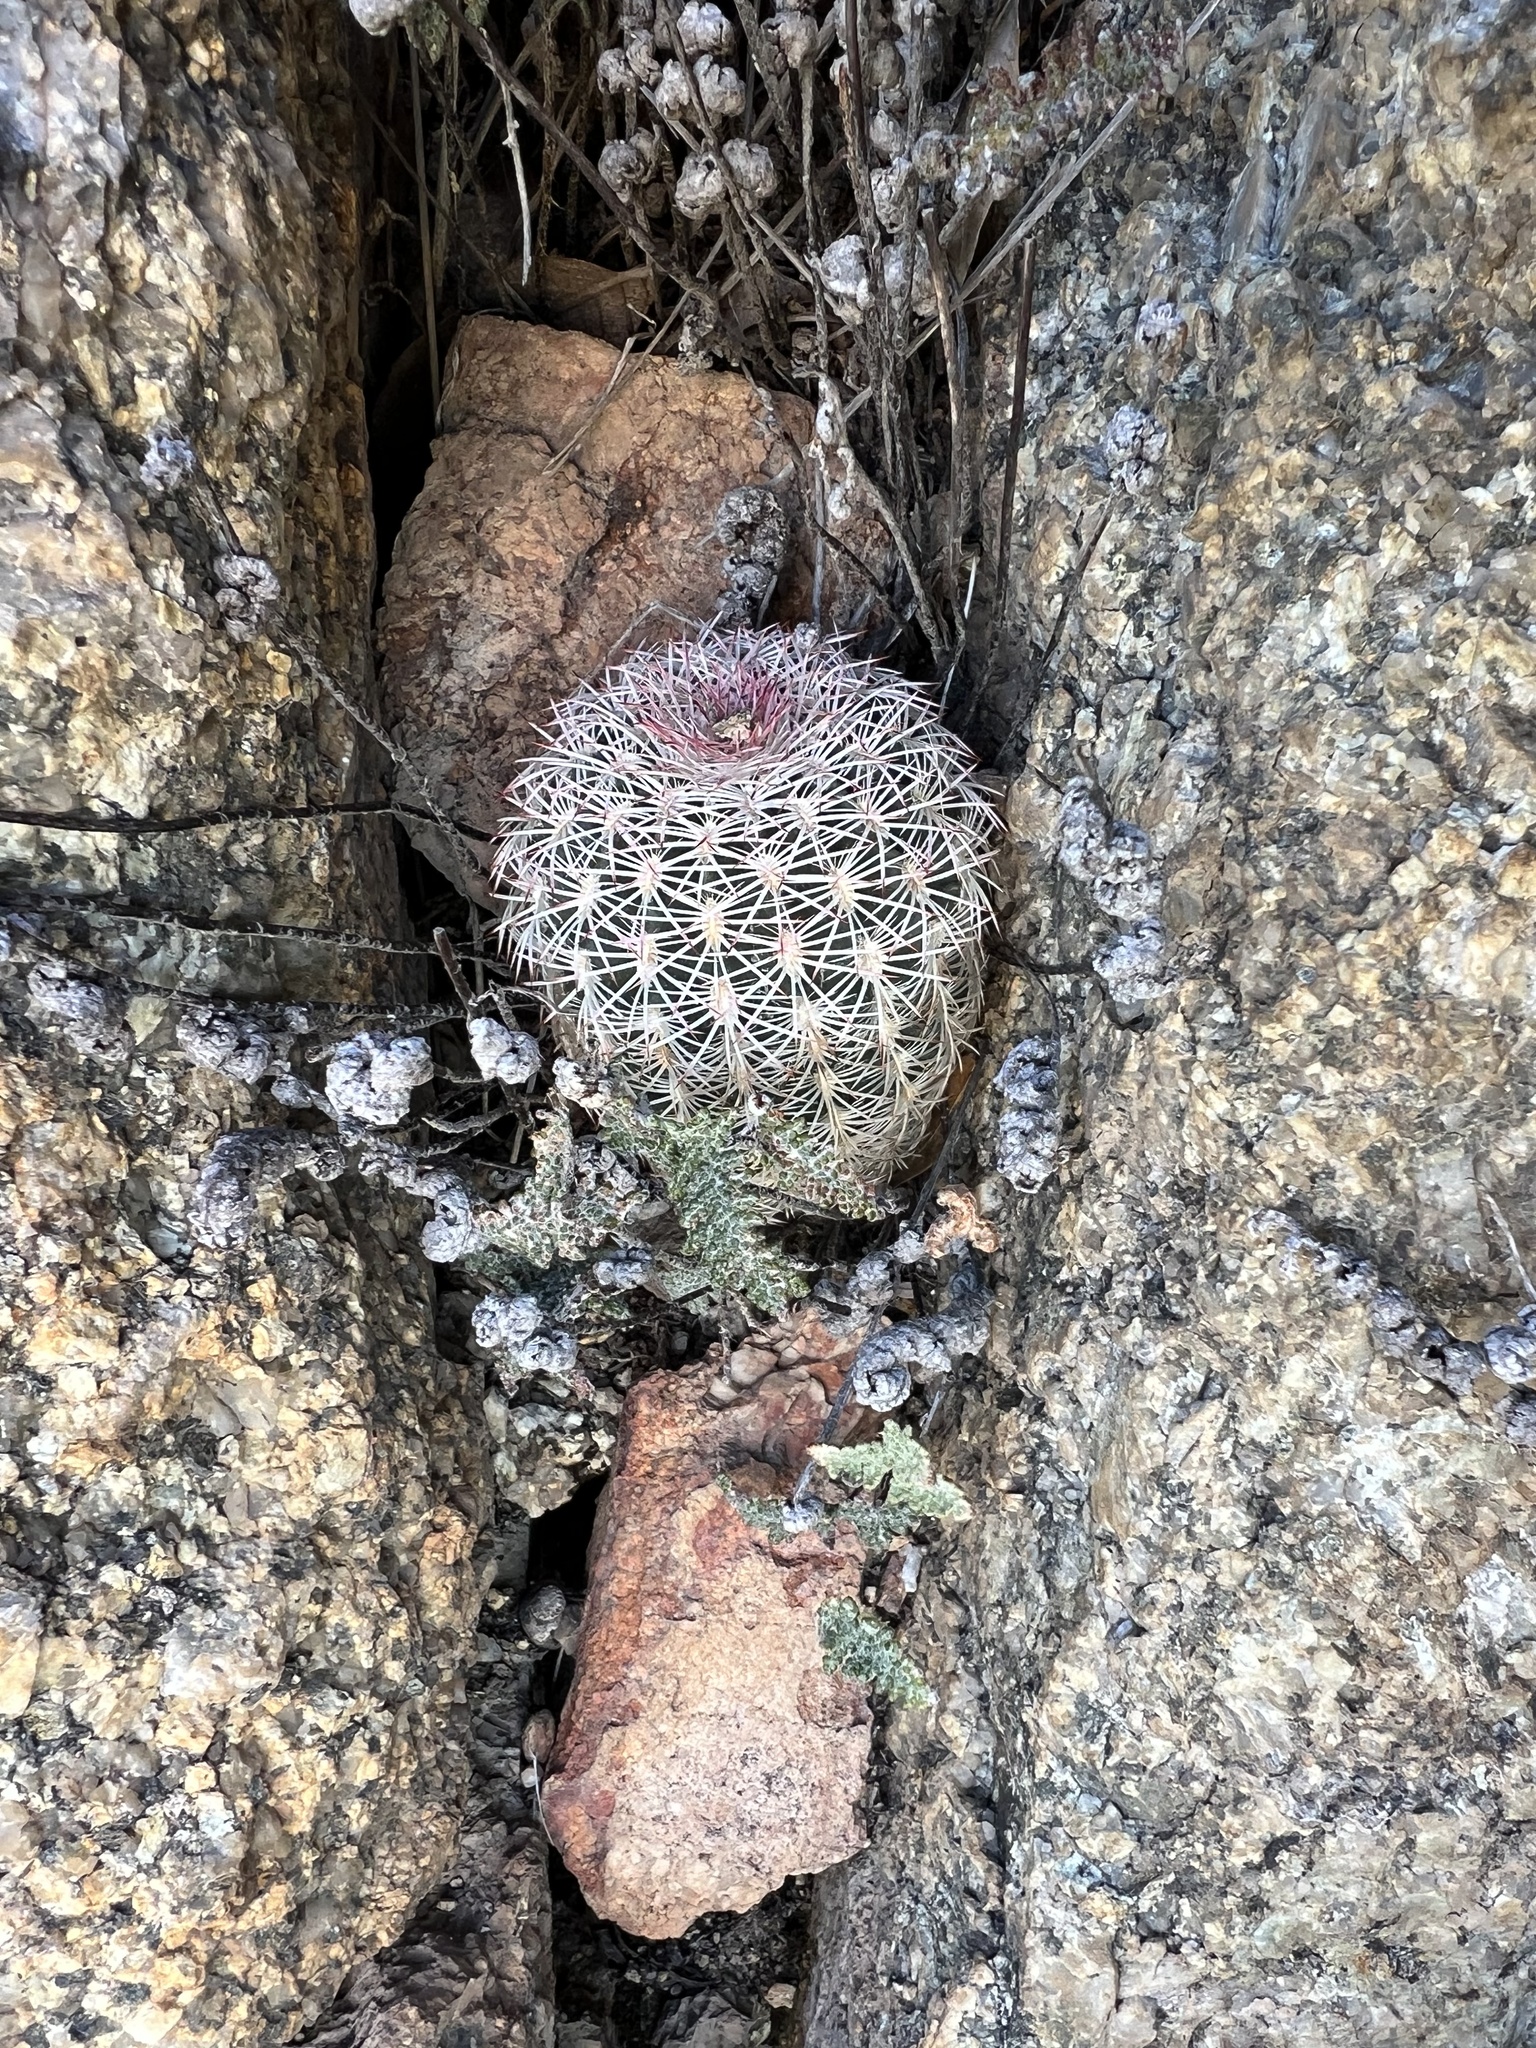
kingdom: Plantae
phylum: Tracheophyta
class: Magnoliopsida
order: Caryophyllales
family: Cactaceae
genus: Echinocereus
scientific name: Echinocereus rigidissimus
